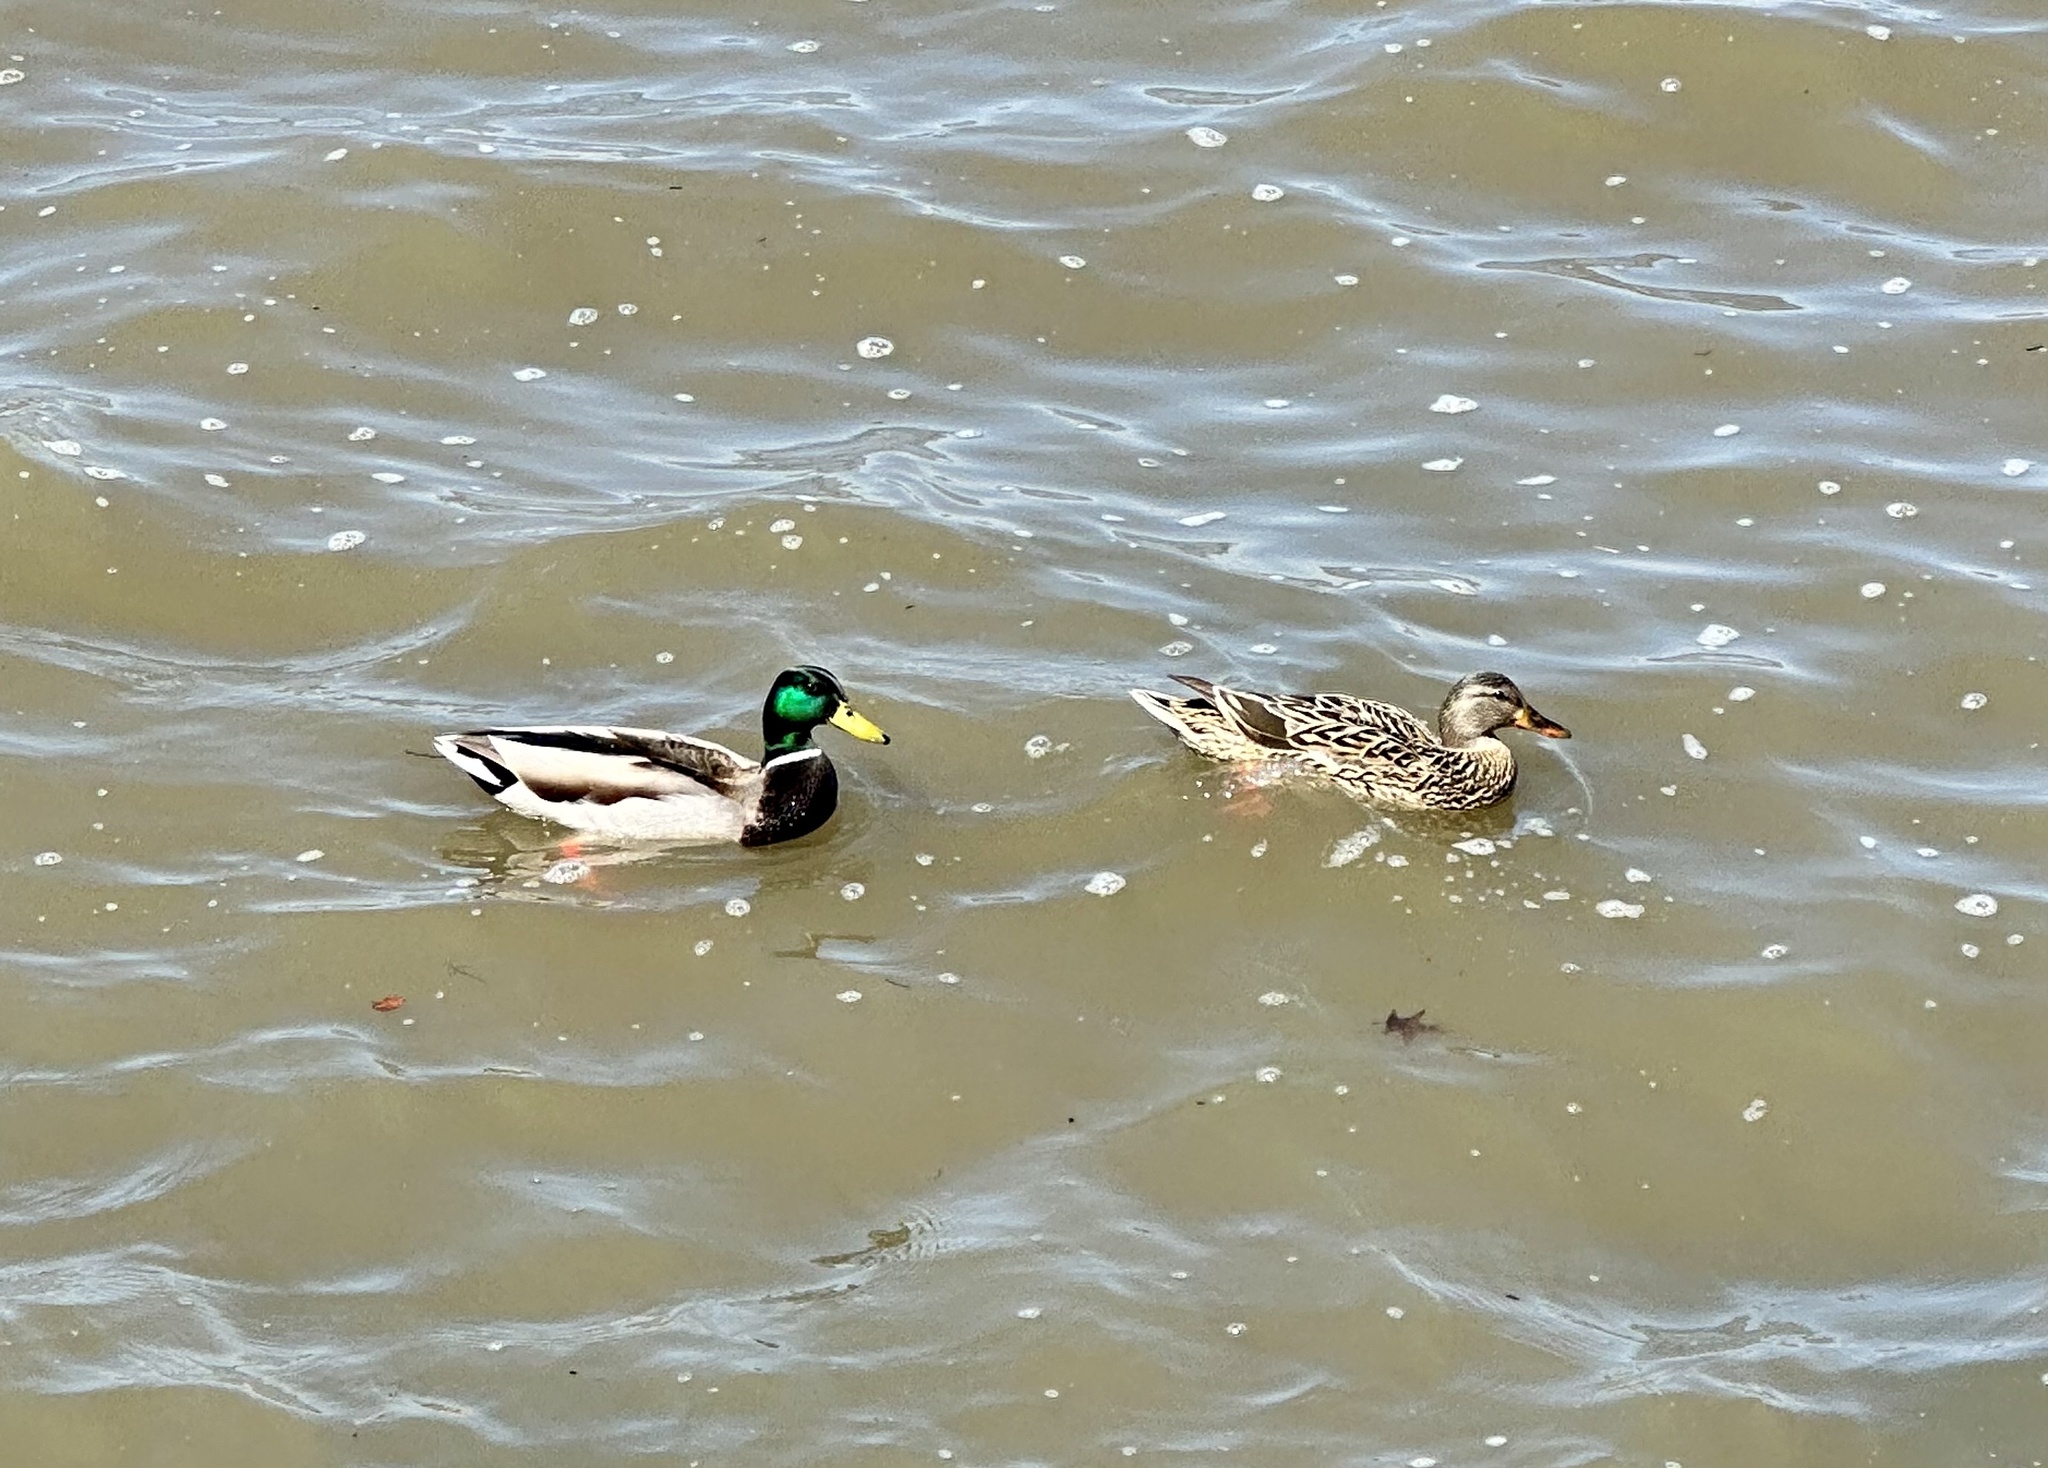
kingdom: Animalia
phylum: Chordata
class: Aves
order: Anseriformes
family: Anatidae
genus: Anas
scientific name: Anas platyrhynchos
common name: Mallard
